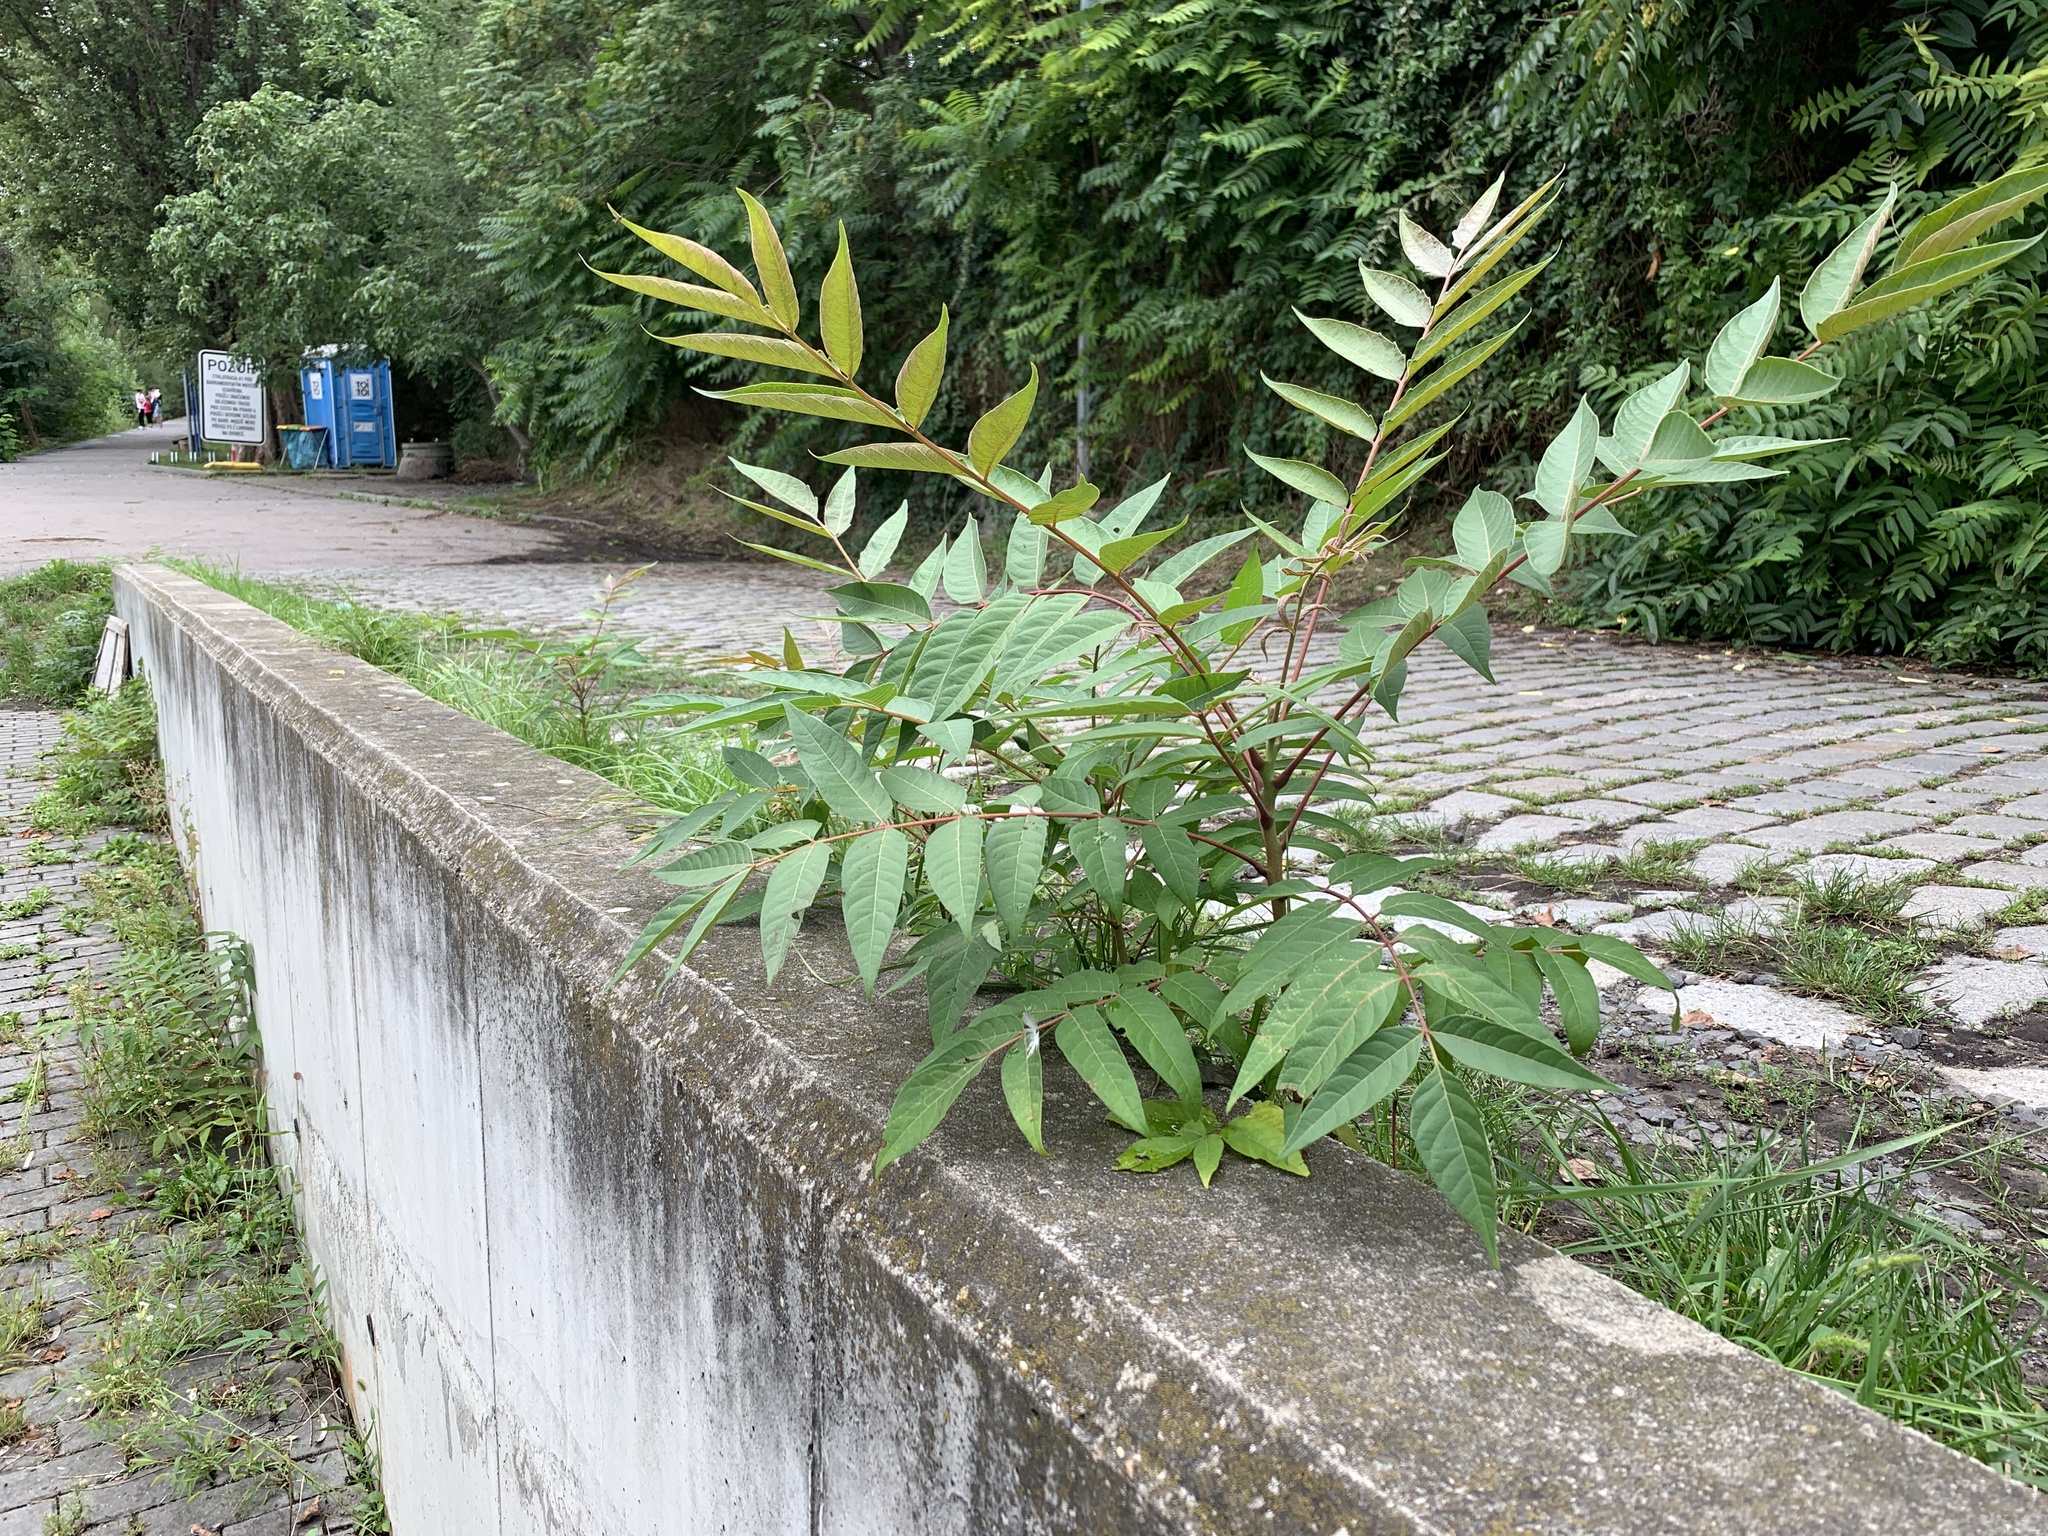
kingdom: Plantae
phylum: Tracheophyta
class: Magnoliopsida
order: Sapindales
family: Simaroubaceae
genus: Ailanthus
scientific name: Ailanthus altissima
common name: Tree-of-heaven
